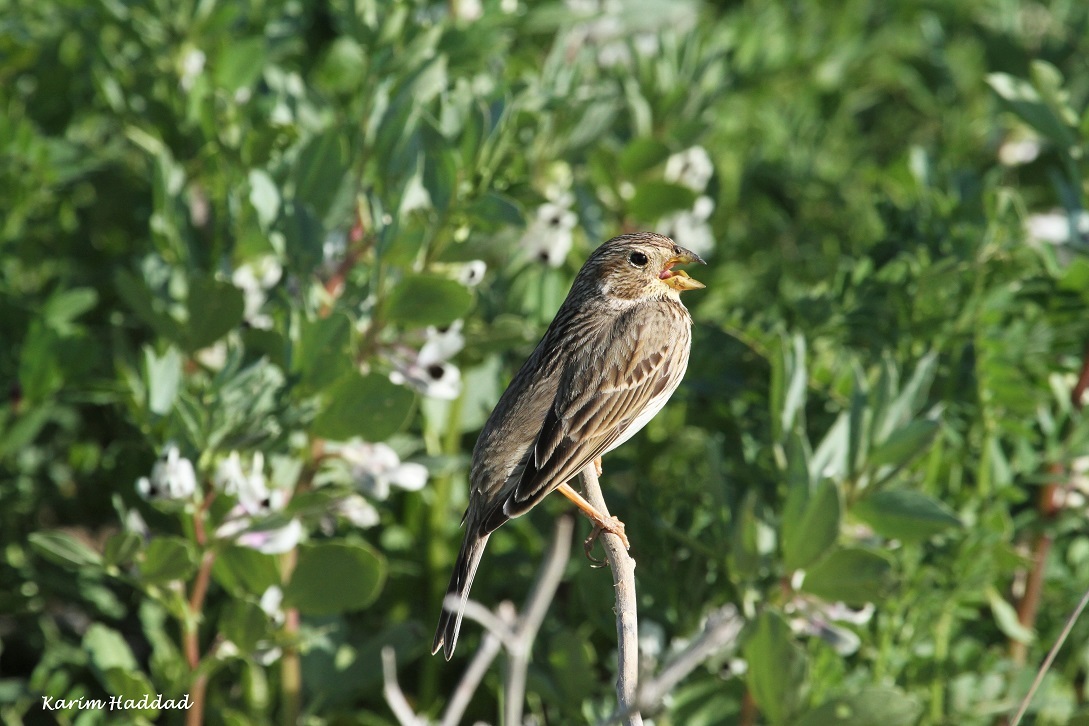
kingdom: Animalia
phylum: Chordata
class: Aves
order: Passeriformes
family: Emberizidae
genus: Emberiza
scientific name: Emberiza calandra
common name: Corn bunting
